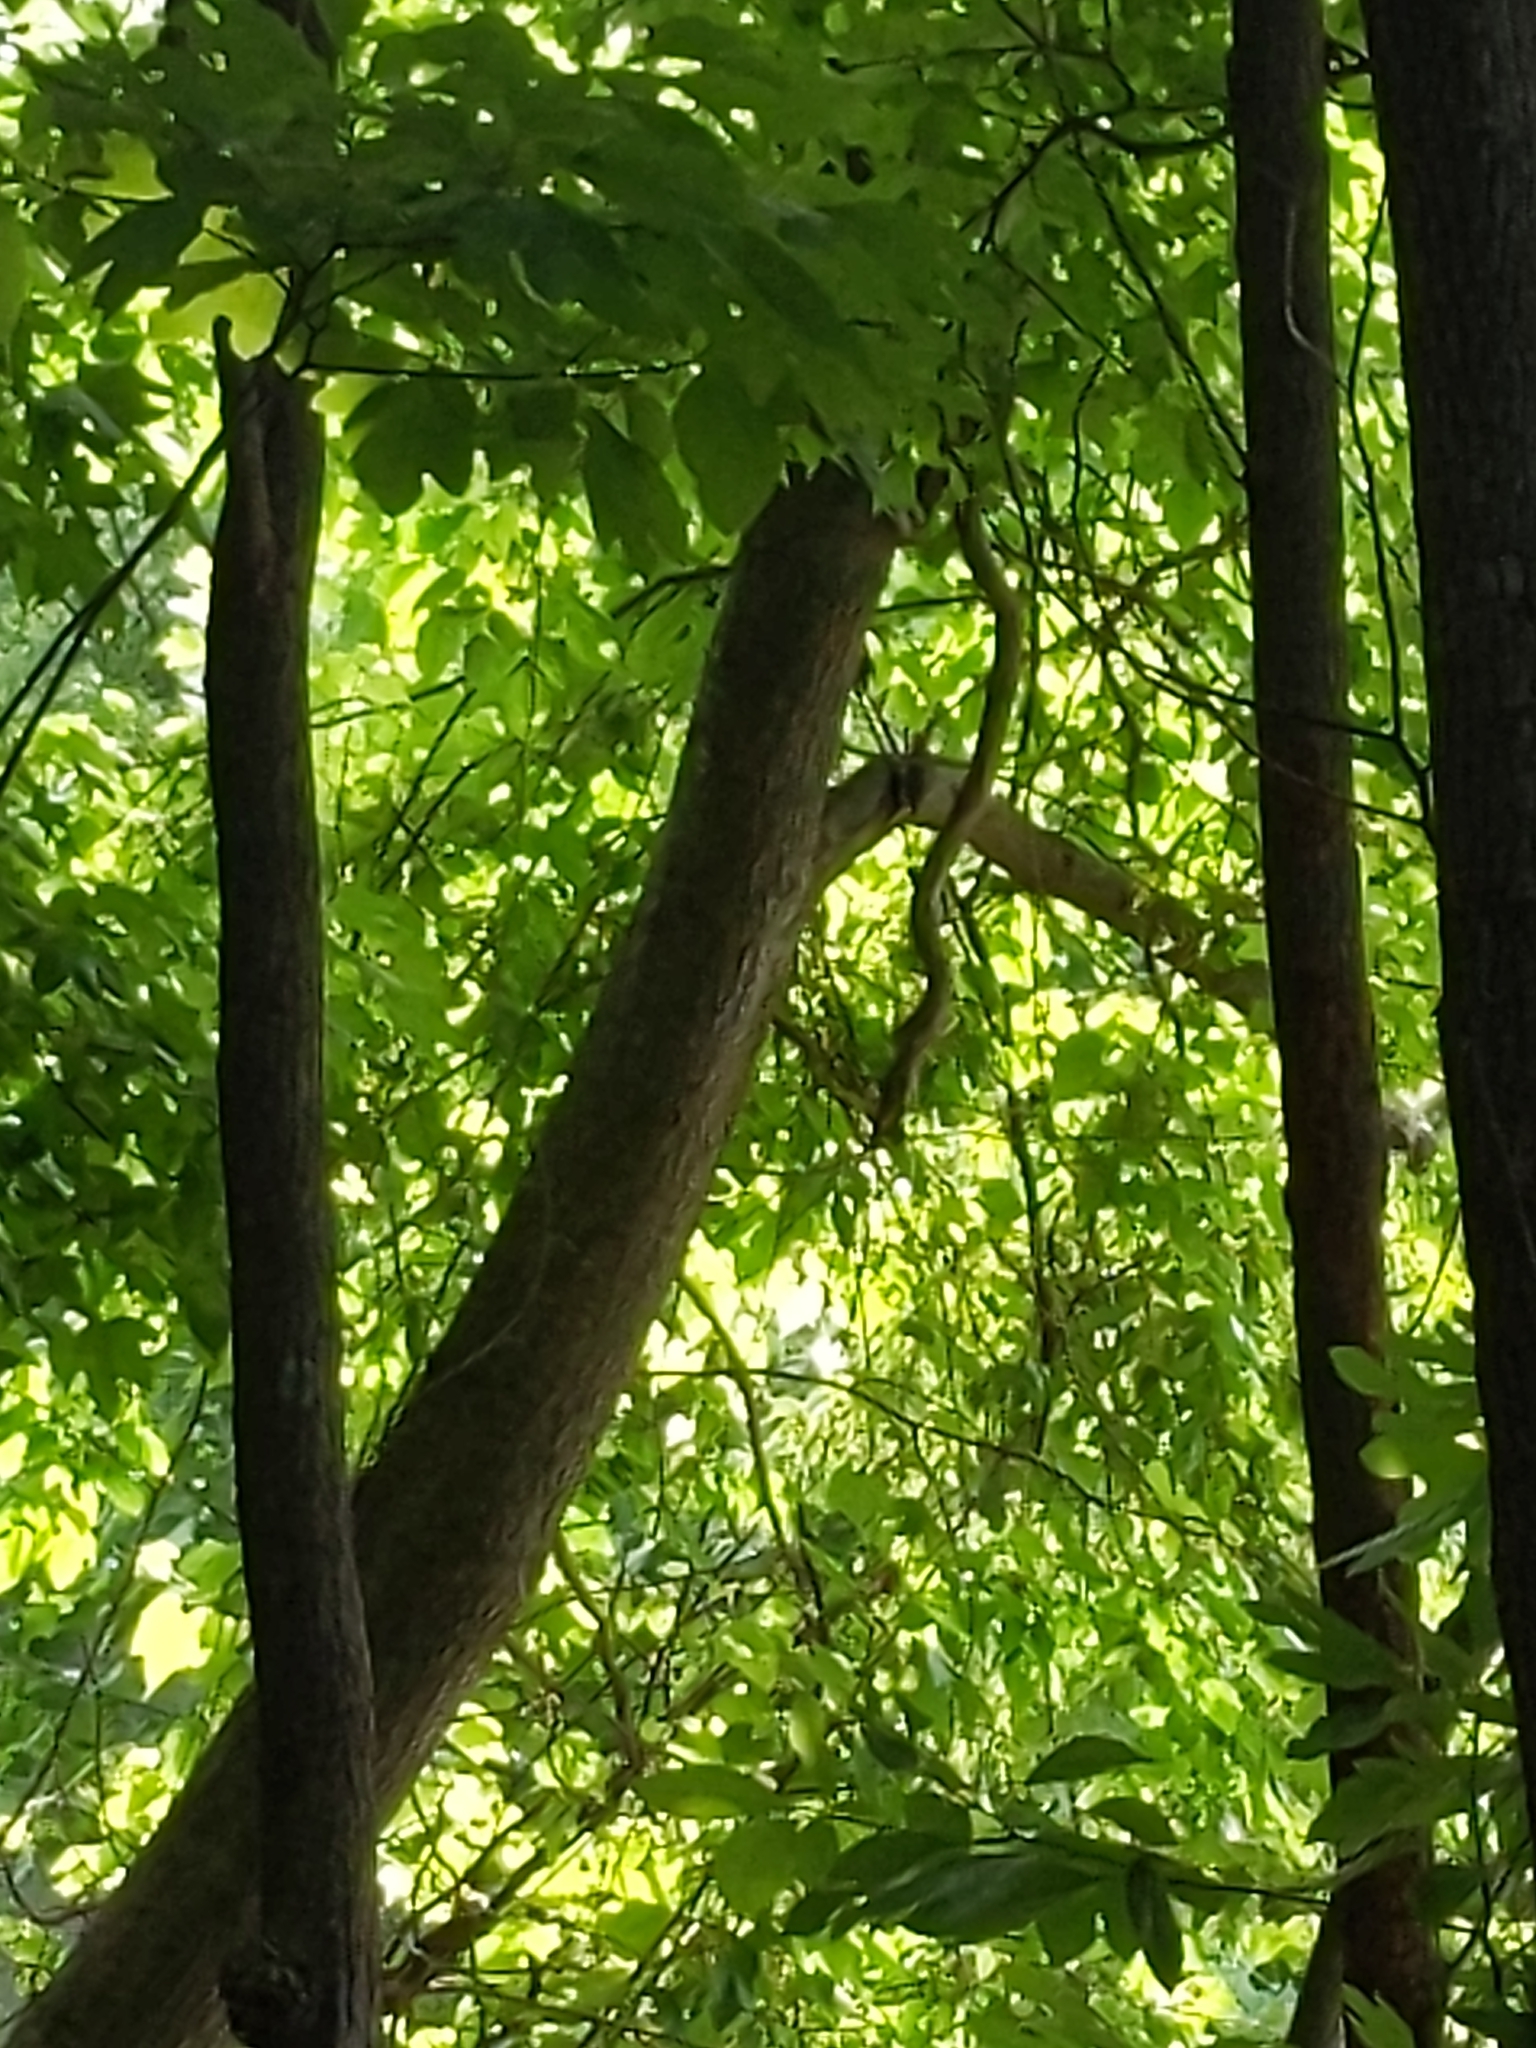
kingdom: Animalia
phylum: Chordata
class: Aves
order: Piciformes
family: Picidae
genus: Melanerpes
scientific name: Melanerpes carolinus
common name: Red-bellied woodpecker
